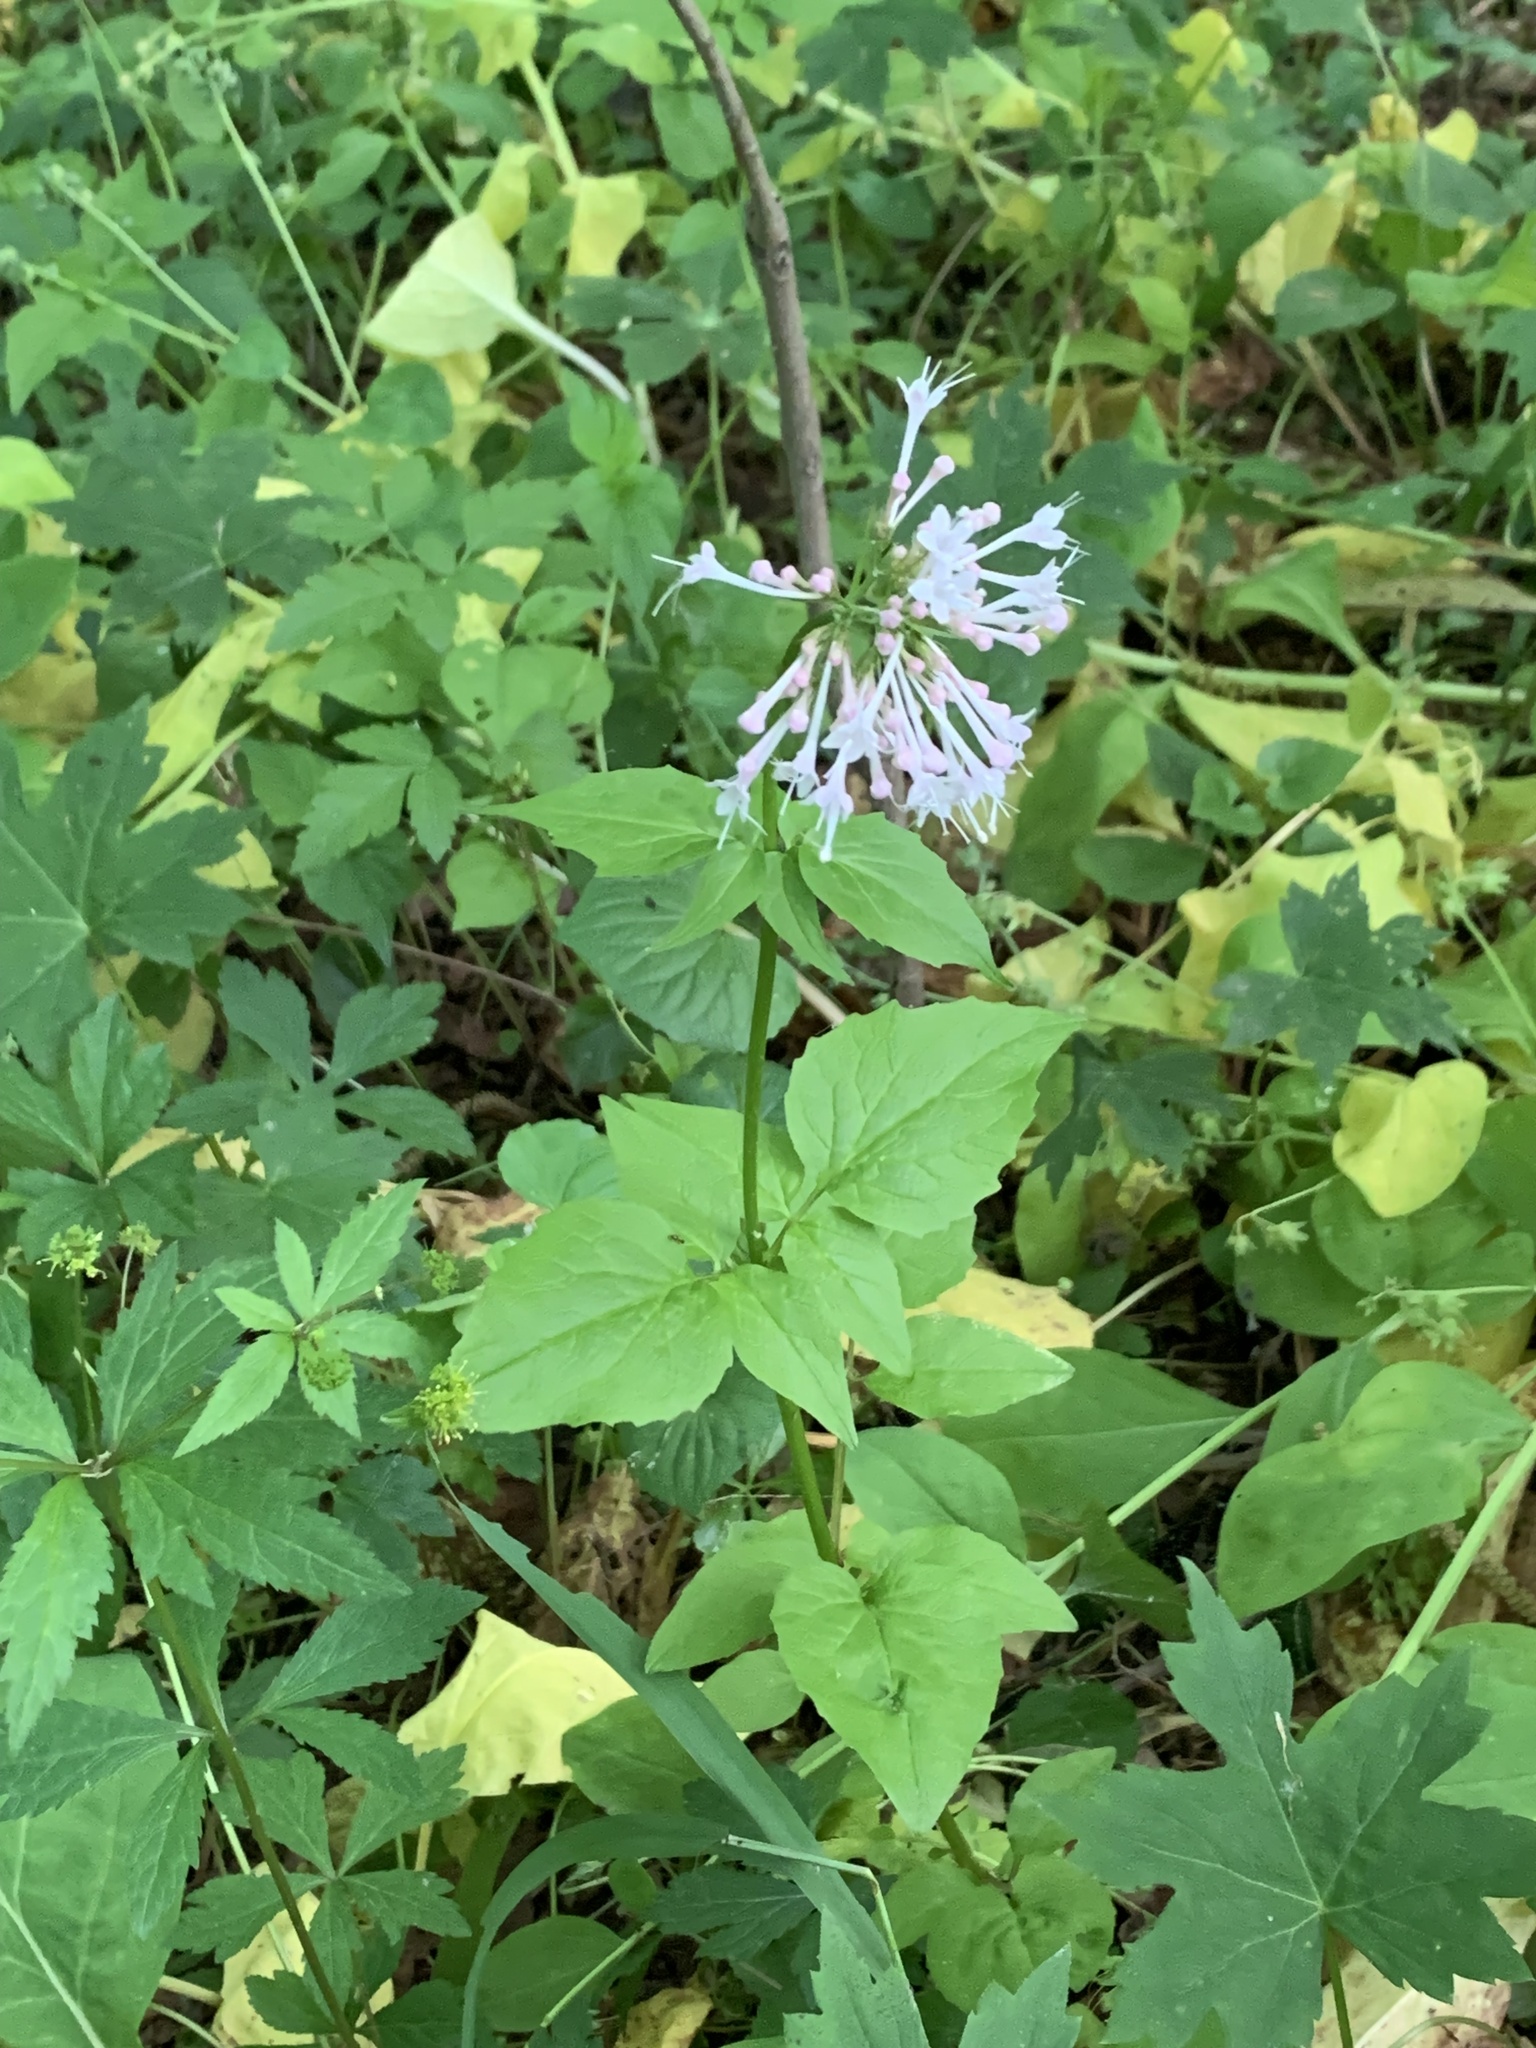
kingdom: Plantae
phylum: Tracheophyta
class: Magnoliopsida
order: Dipsacales
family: Caprifoliaceae
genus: Valeriana
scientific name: Valeriana pauciflora
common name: Long-tube valeriana
